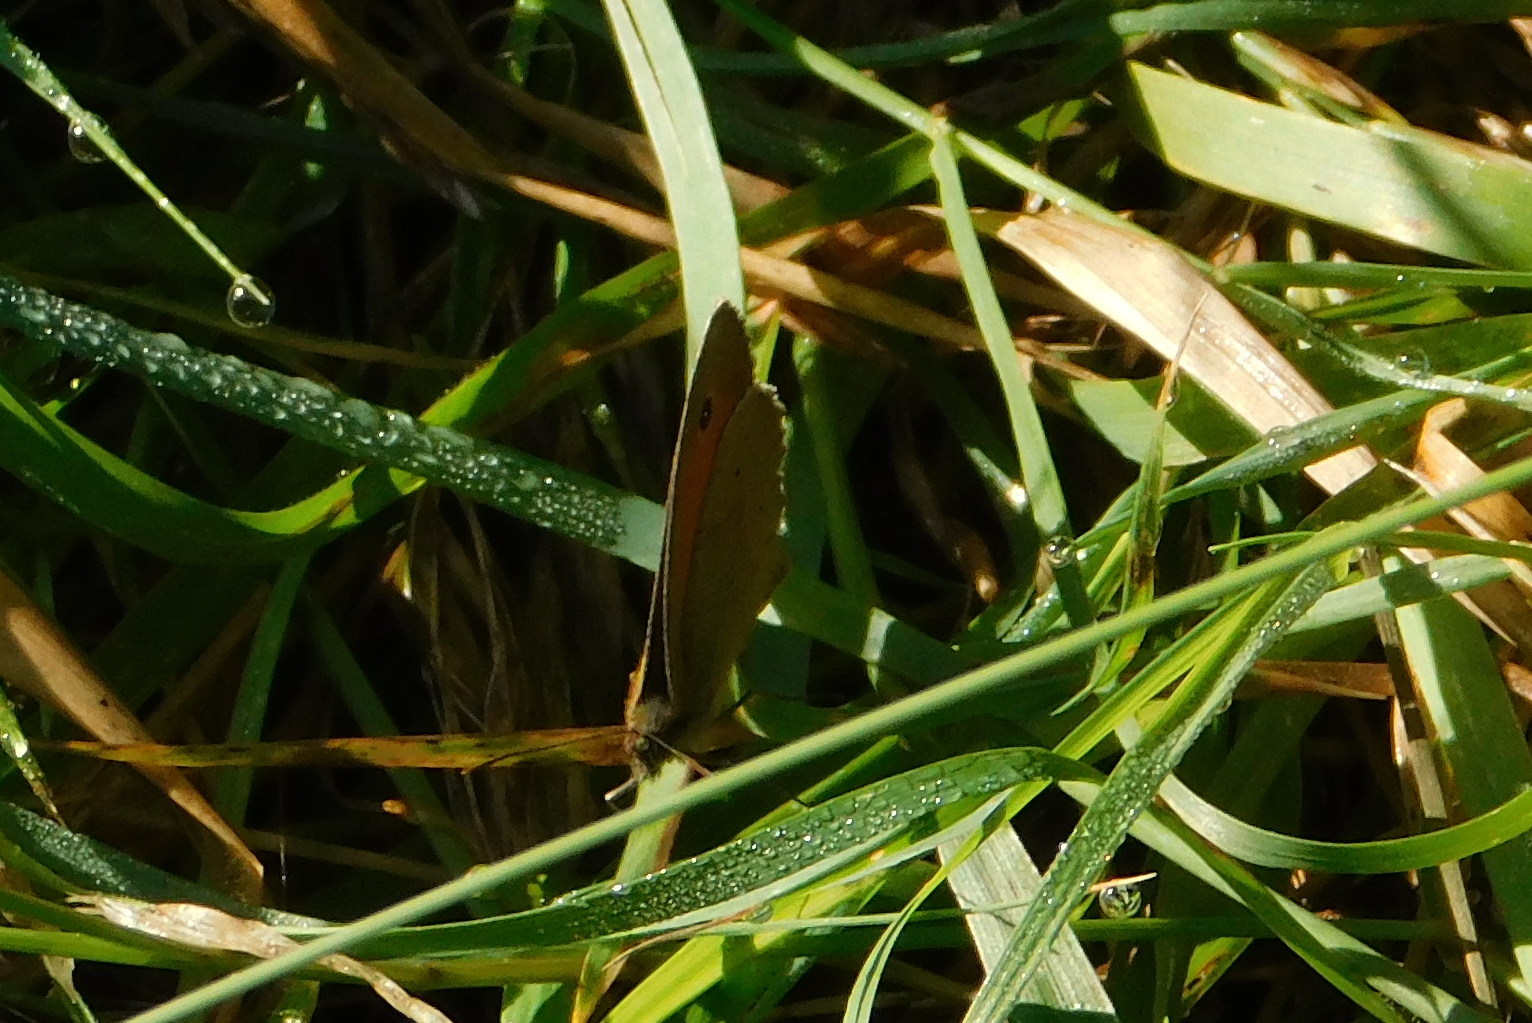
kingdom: Animalia
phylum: Arthropoda
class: Insecta
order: Lepidoptera
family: Nymphalidae
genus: Maniola
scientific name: Maniola jurtina
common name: Meadow brown
